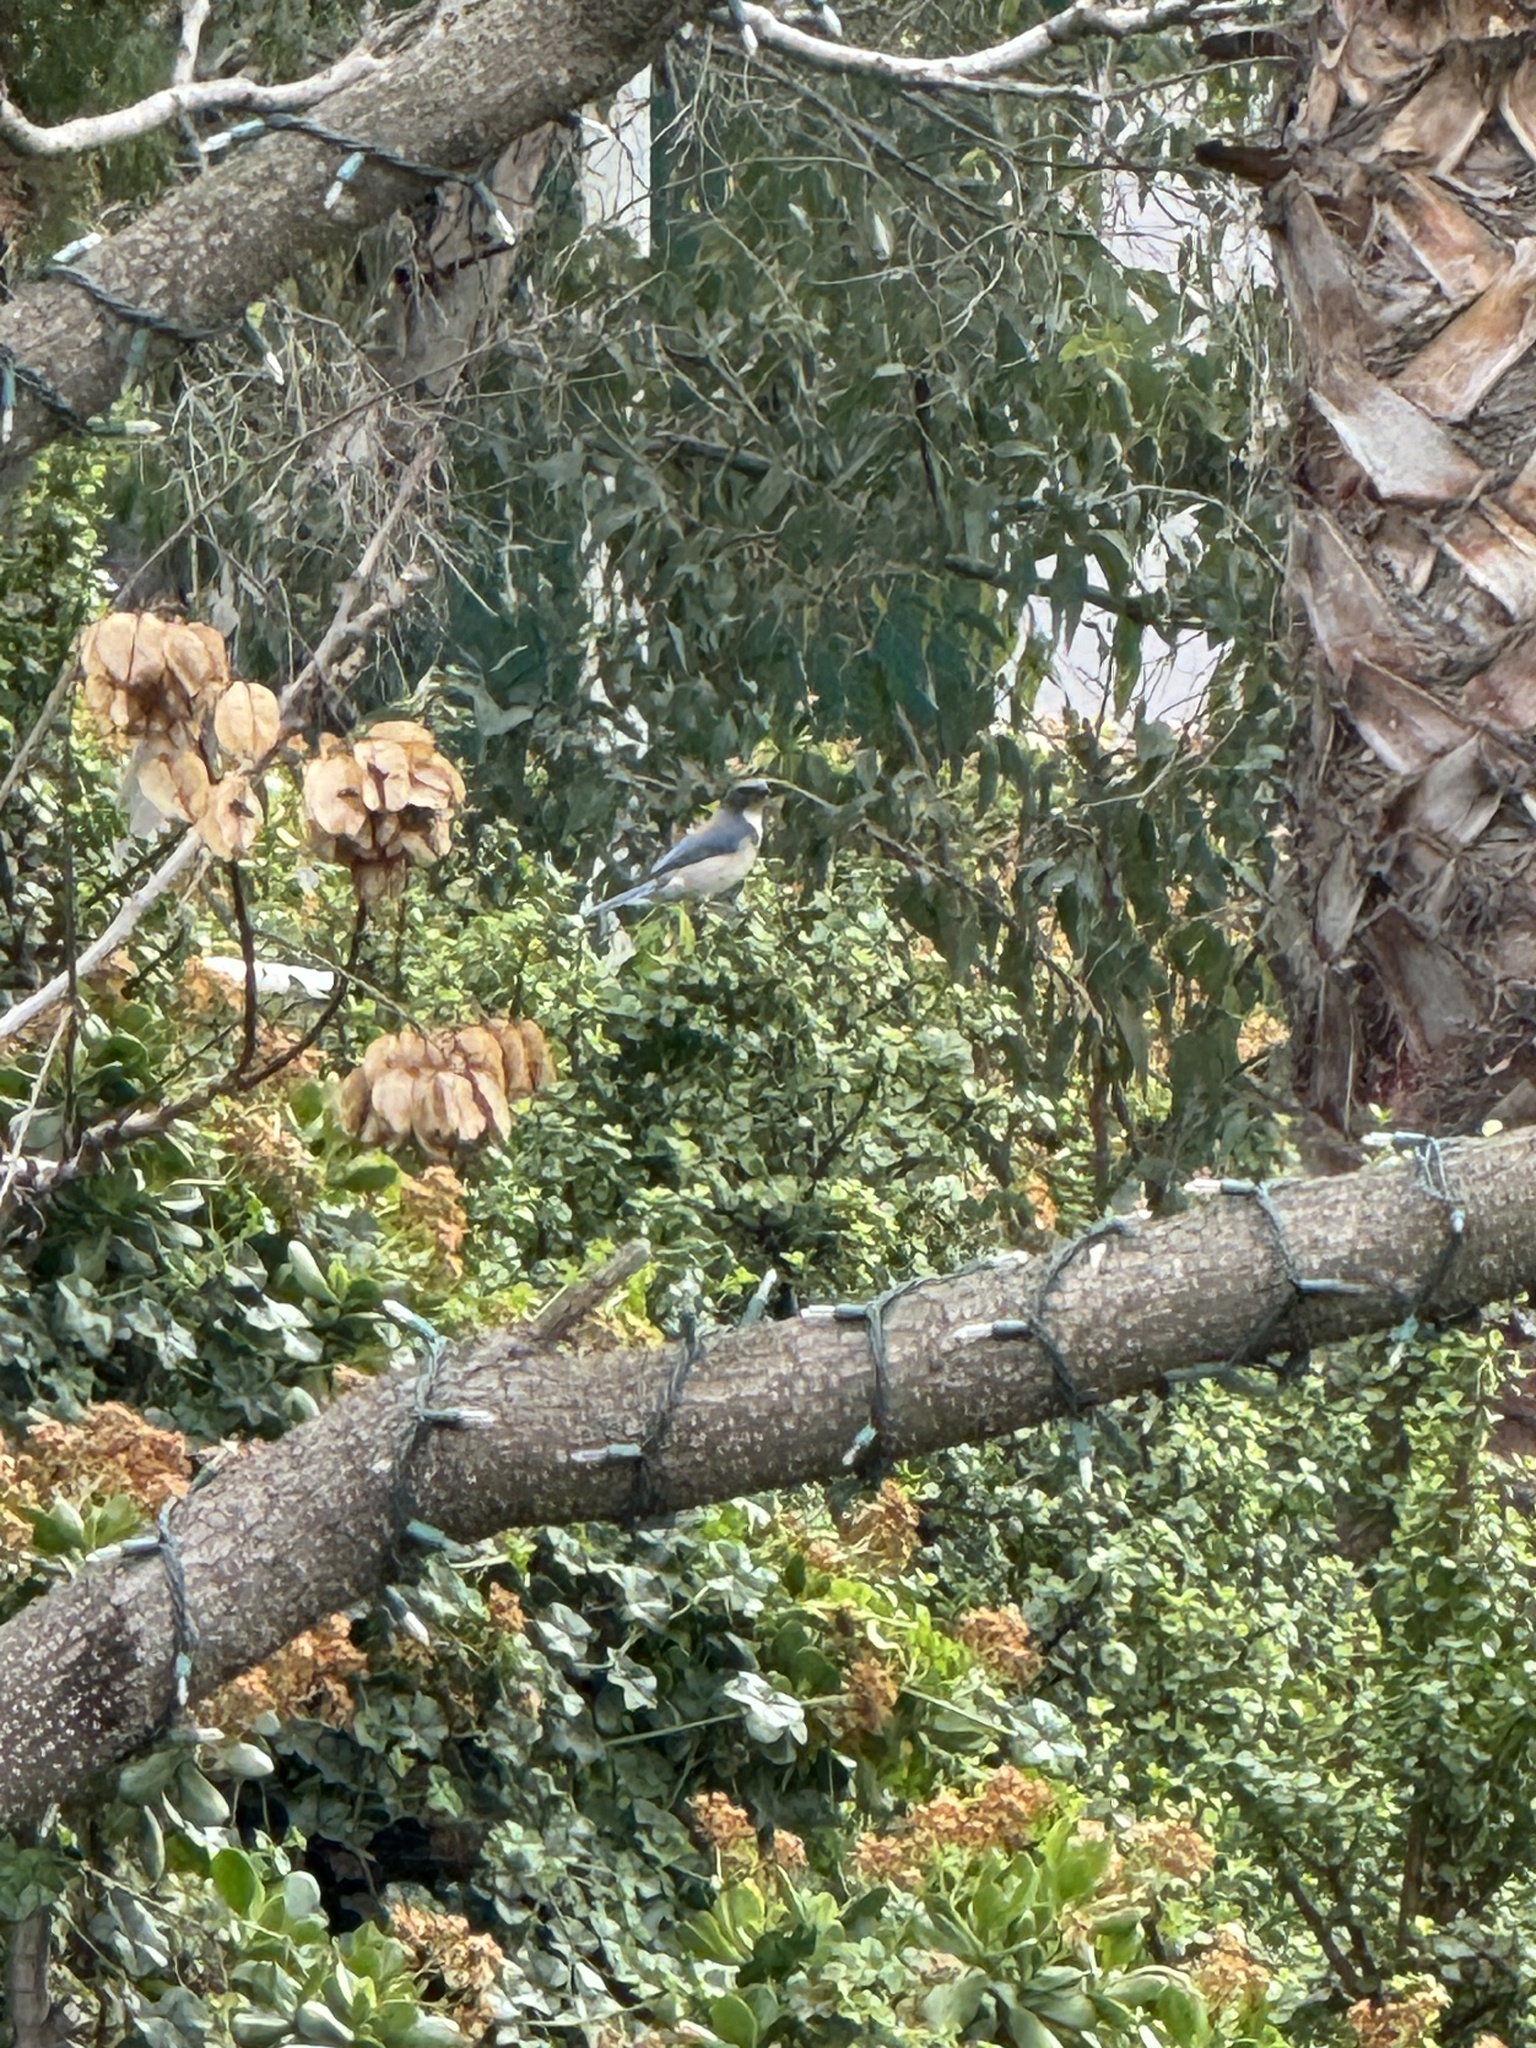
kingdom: Animalia
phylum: Chordata
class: Aves
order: Passeriformes
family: Corvidae
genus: Aphelocoma
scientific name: Aphelocoma californica
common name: California scrub-jay
